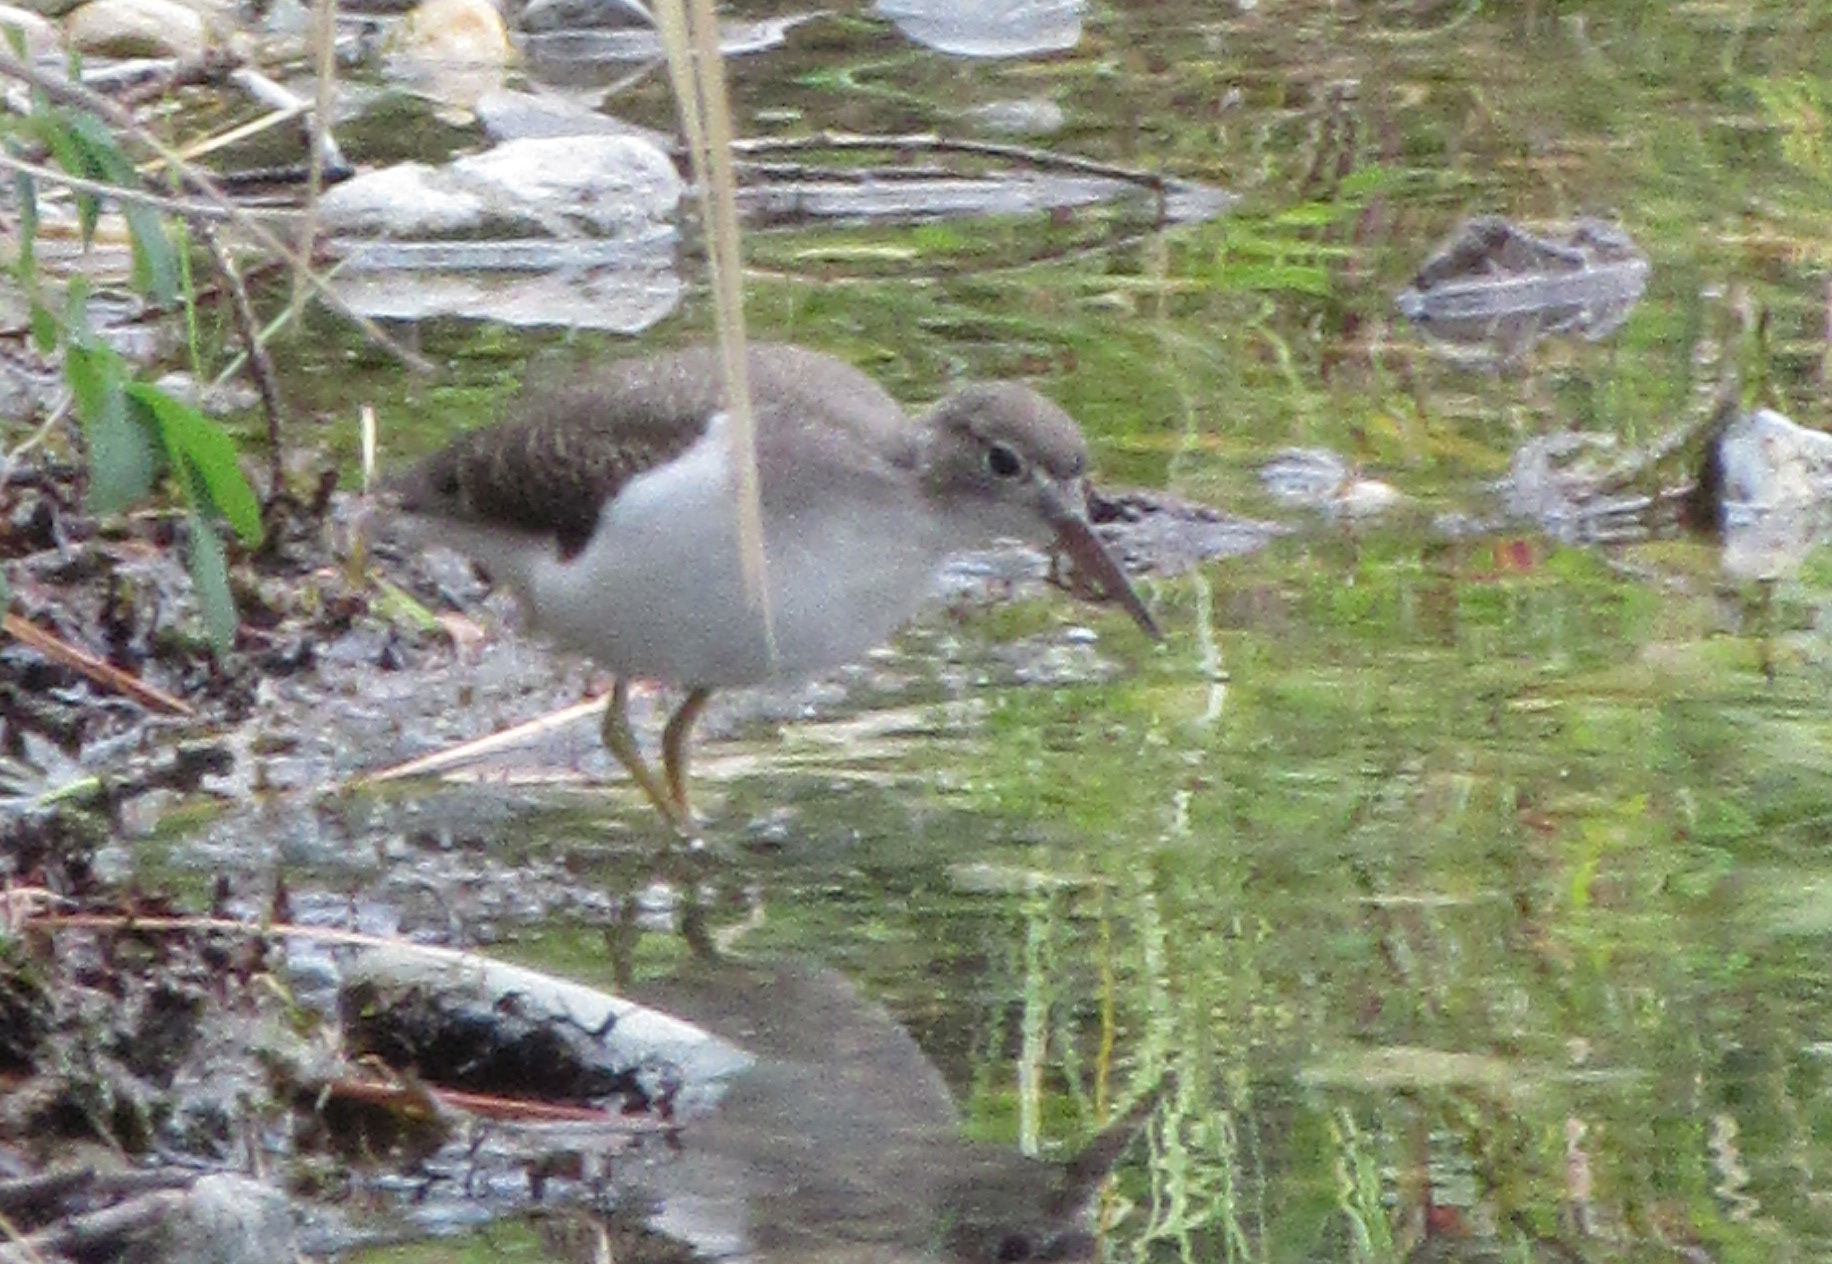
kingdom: Animalia
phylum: Chordata
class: Aves
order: Charadriiformes
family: Scolopacidae
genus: Actitis
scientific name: Actitis macularius
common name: Spotted sandpiper
